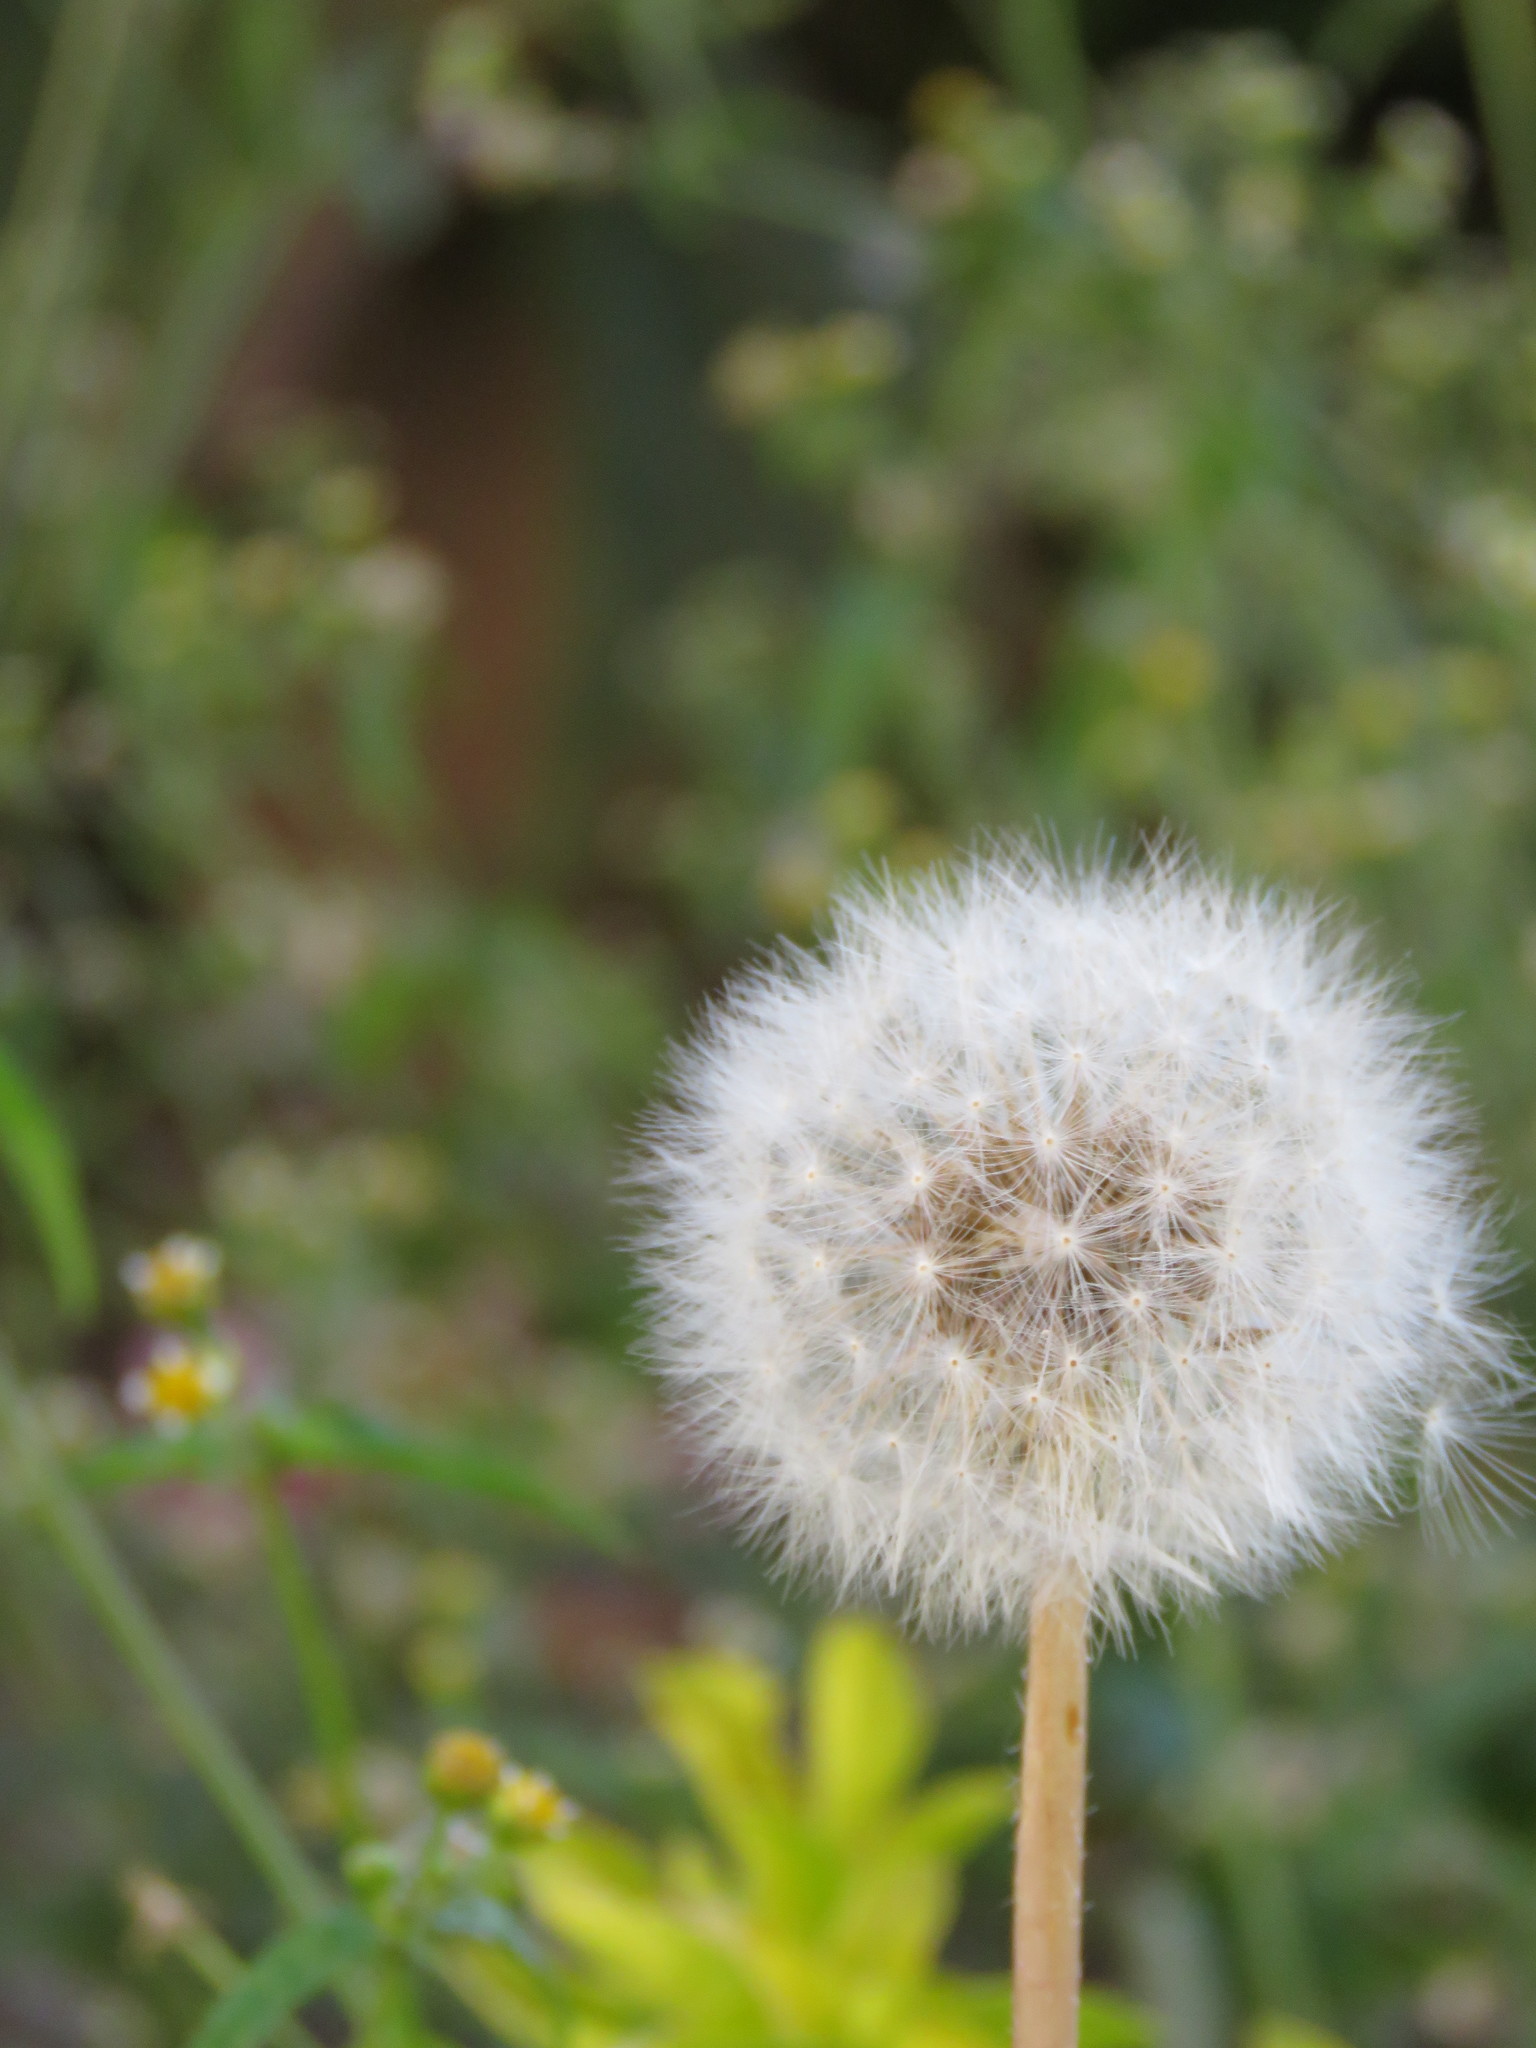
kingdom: Plantae
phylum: Tracheophyta
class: Magnoliopsida
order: Asterales
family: Asteraceae
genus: Taraxacum
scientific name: Taraxacum officinale
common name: Common dandelion
